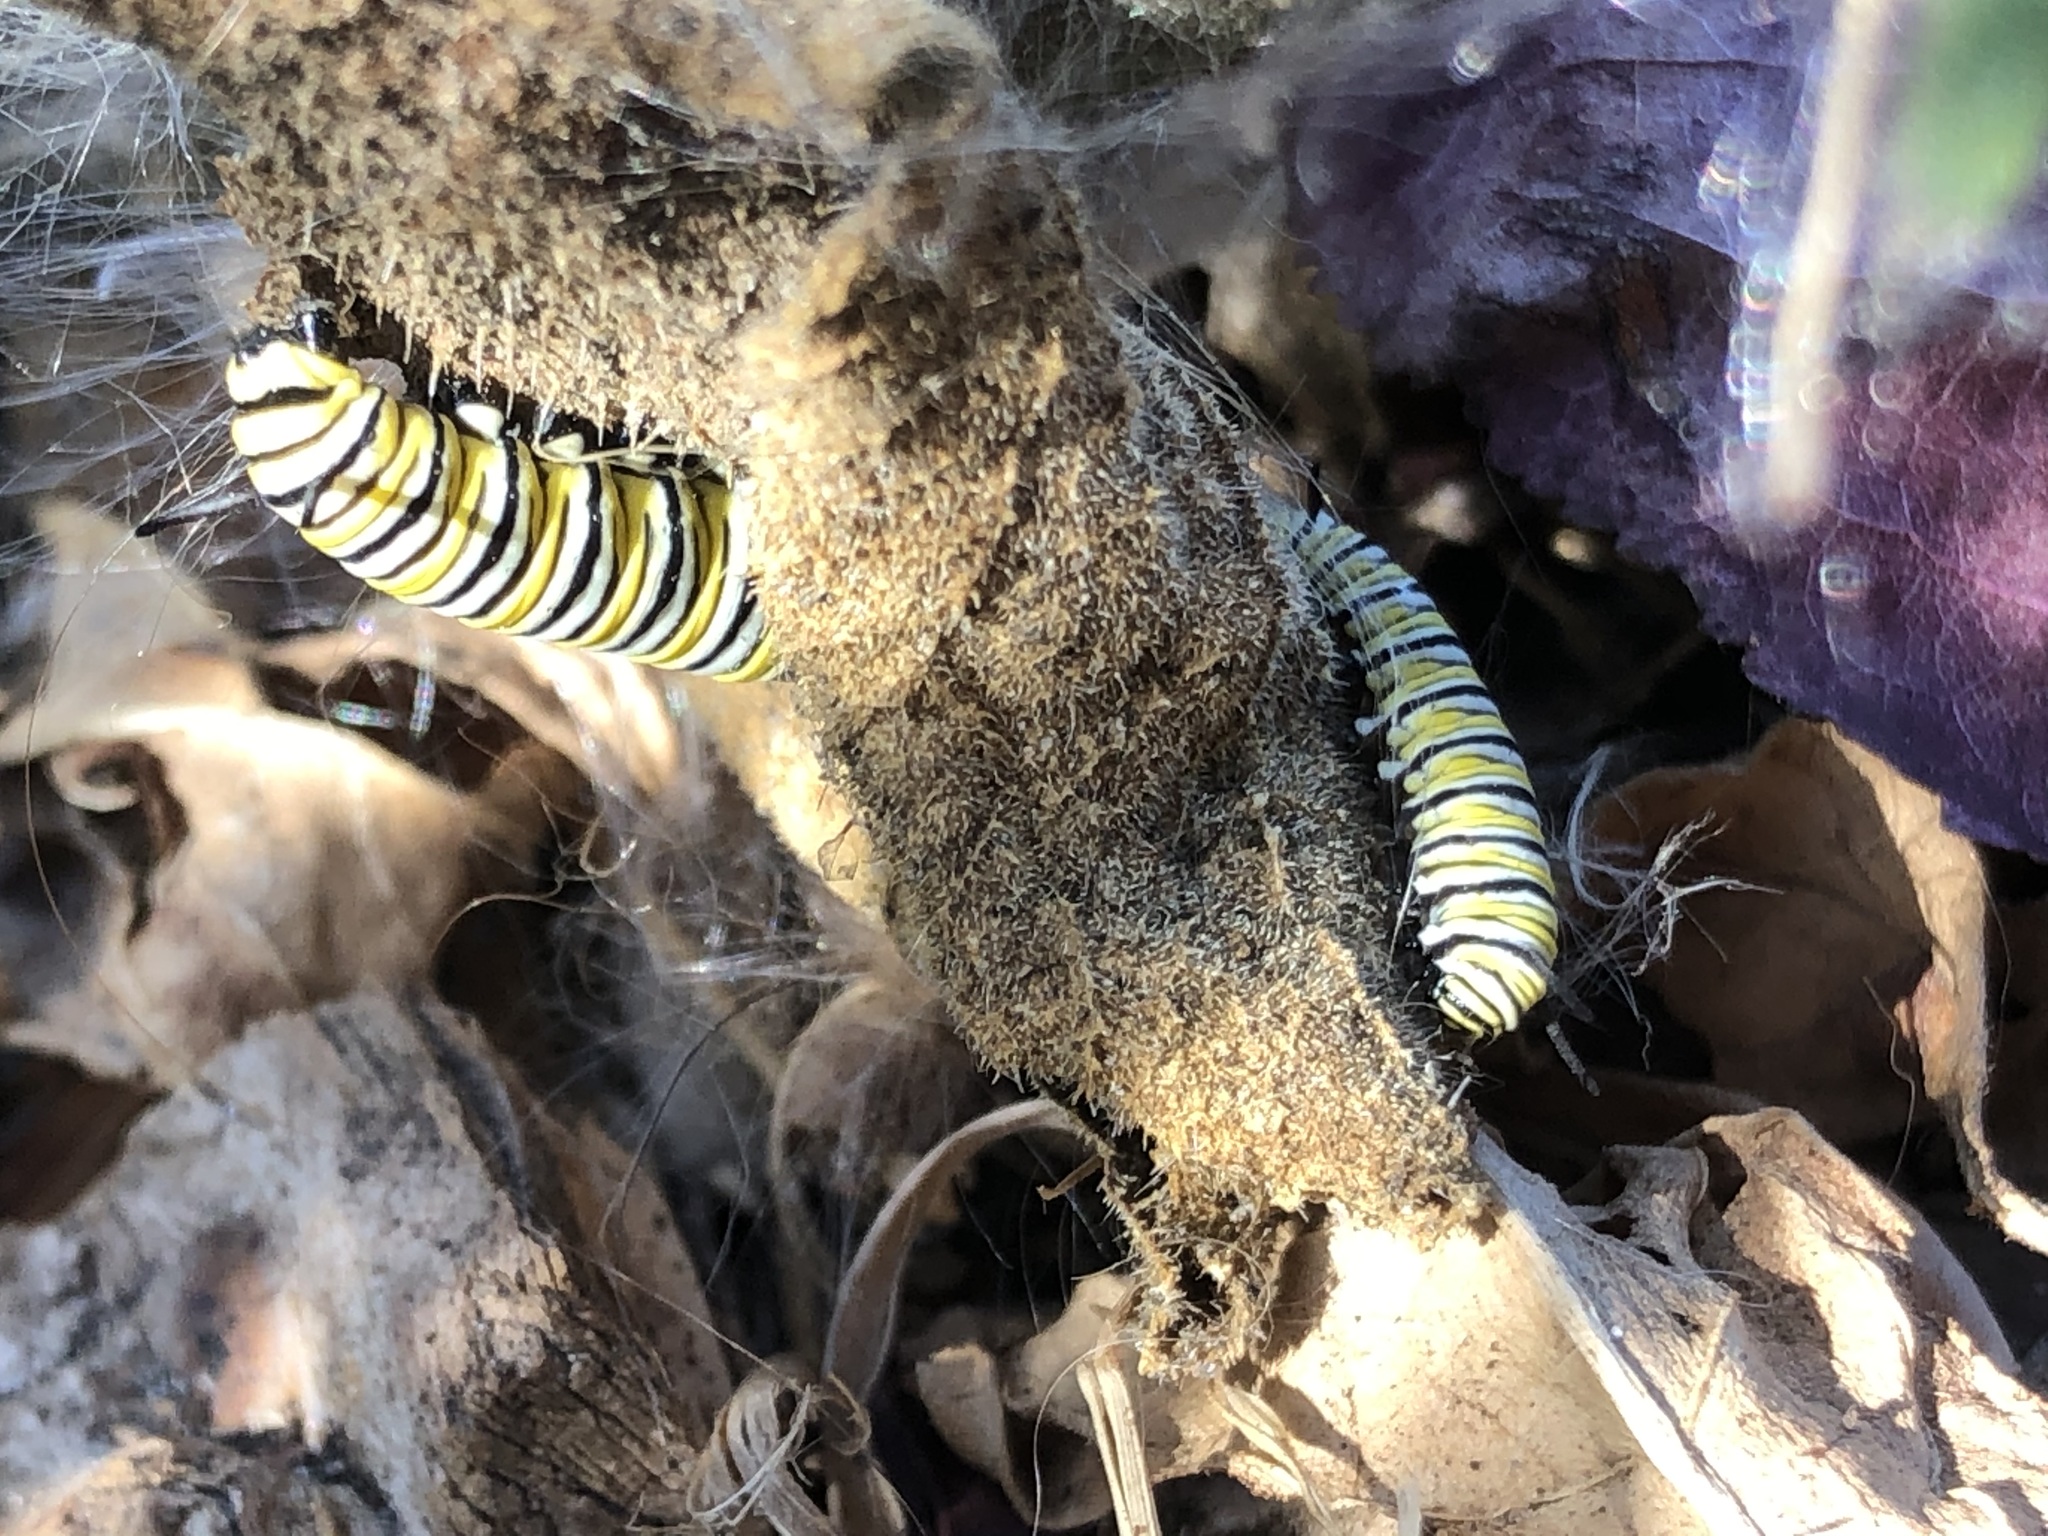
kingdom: Animalia
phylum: Arthropoda
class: Insecta
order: Lepidoptera
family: Nymphalidae
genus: Danaus
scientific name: Danaus plexippus
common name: Monarch
